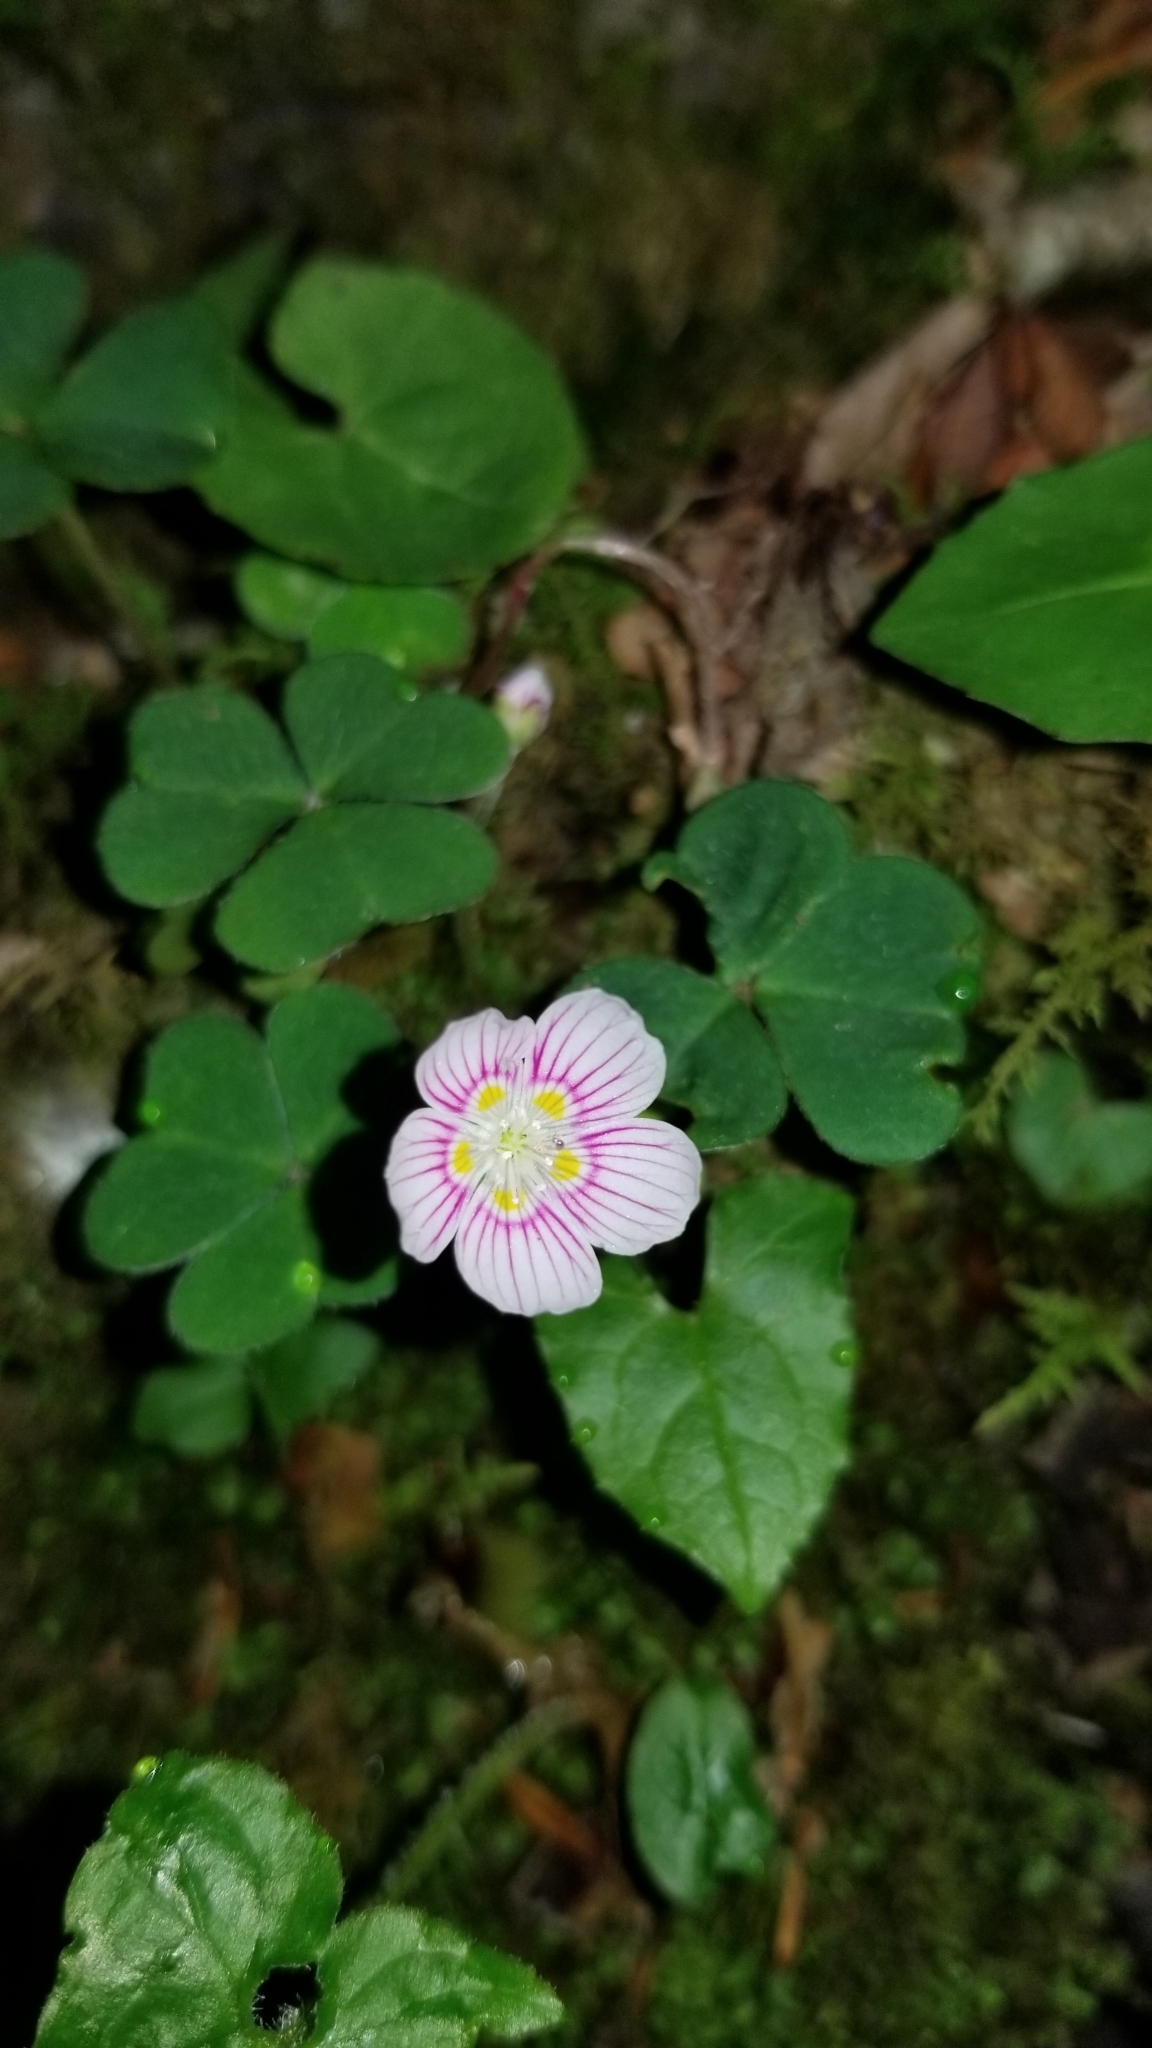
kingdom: Plantae
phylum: Tracheophyta
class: Magnoliopsida
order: Oxalidales
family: Oxalidaceae
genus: Oxalis
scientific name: Oxalis montana
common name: American wood-sorrel
